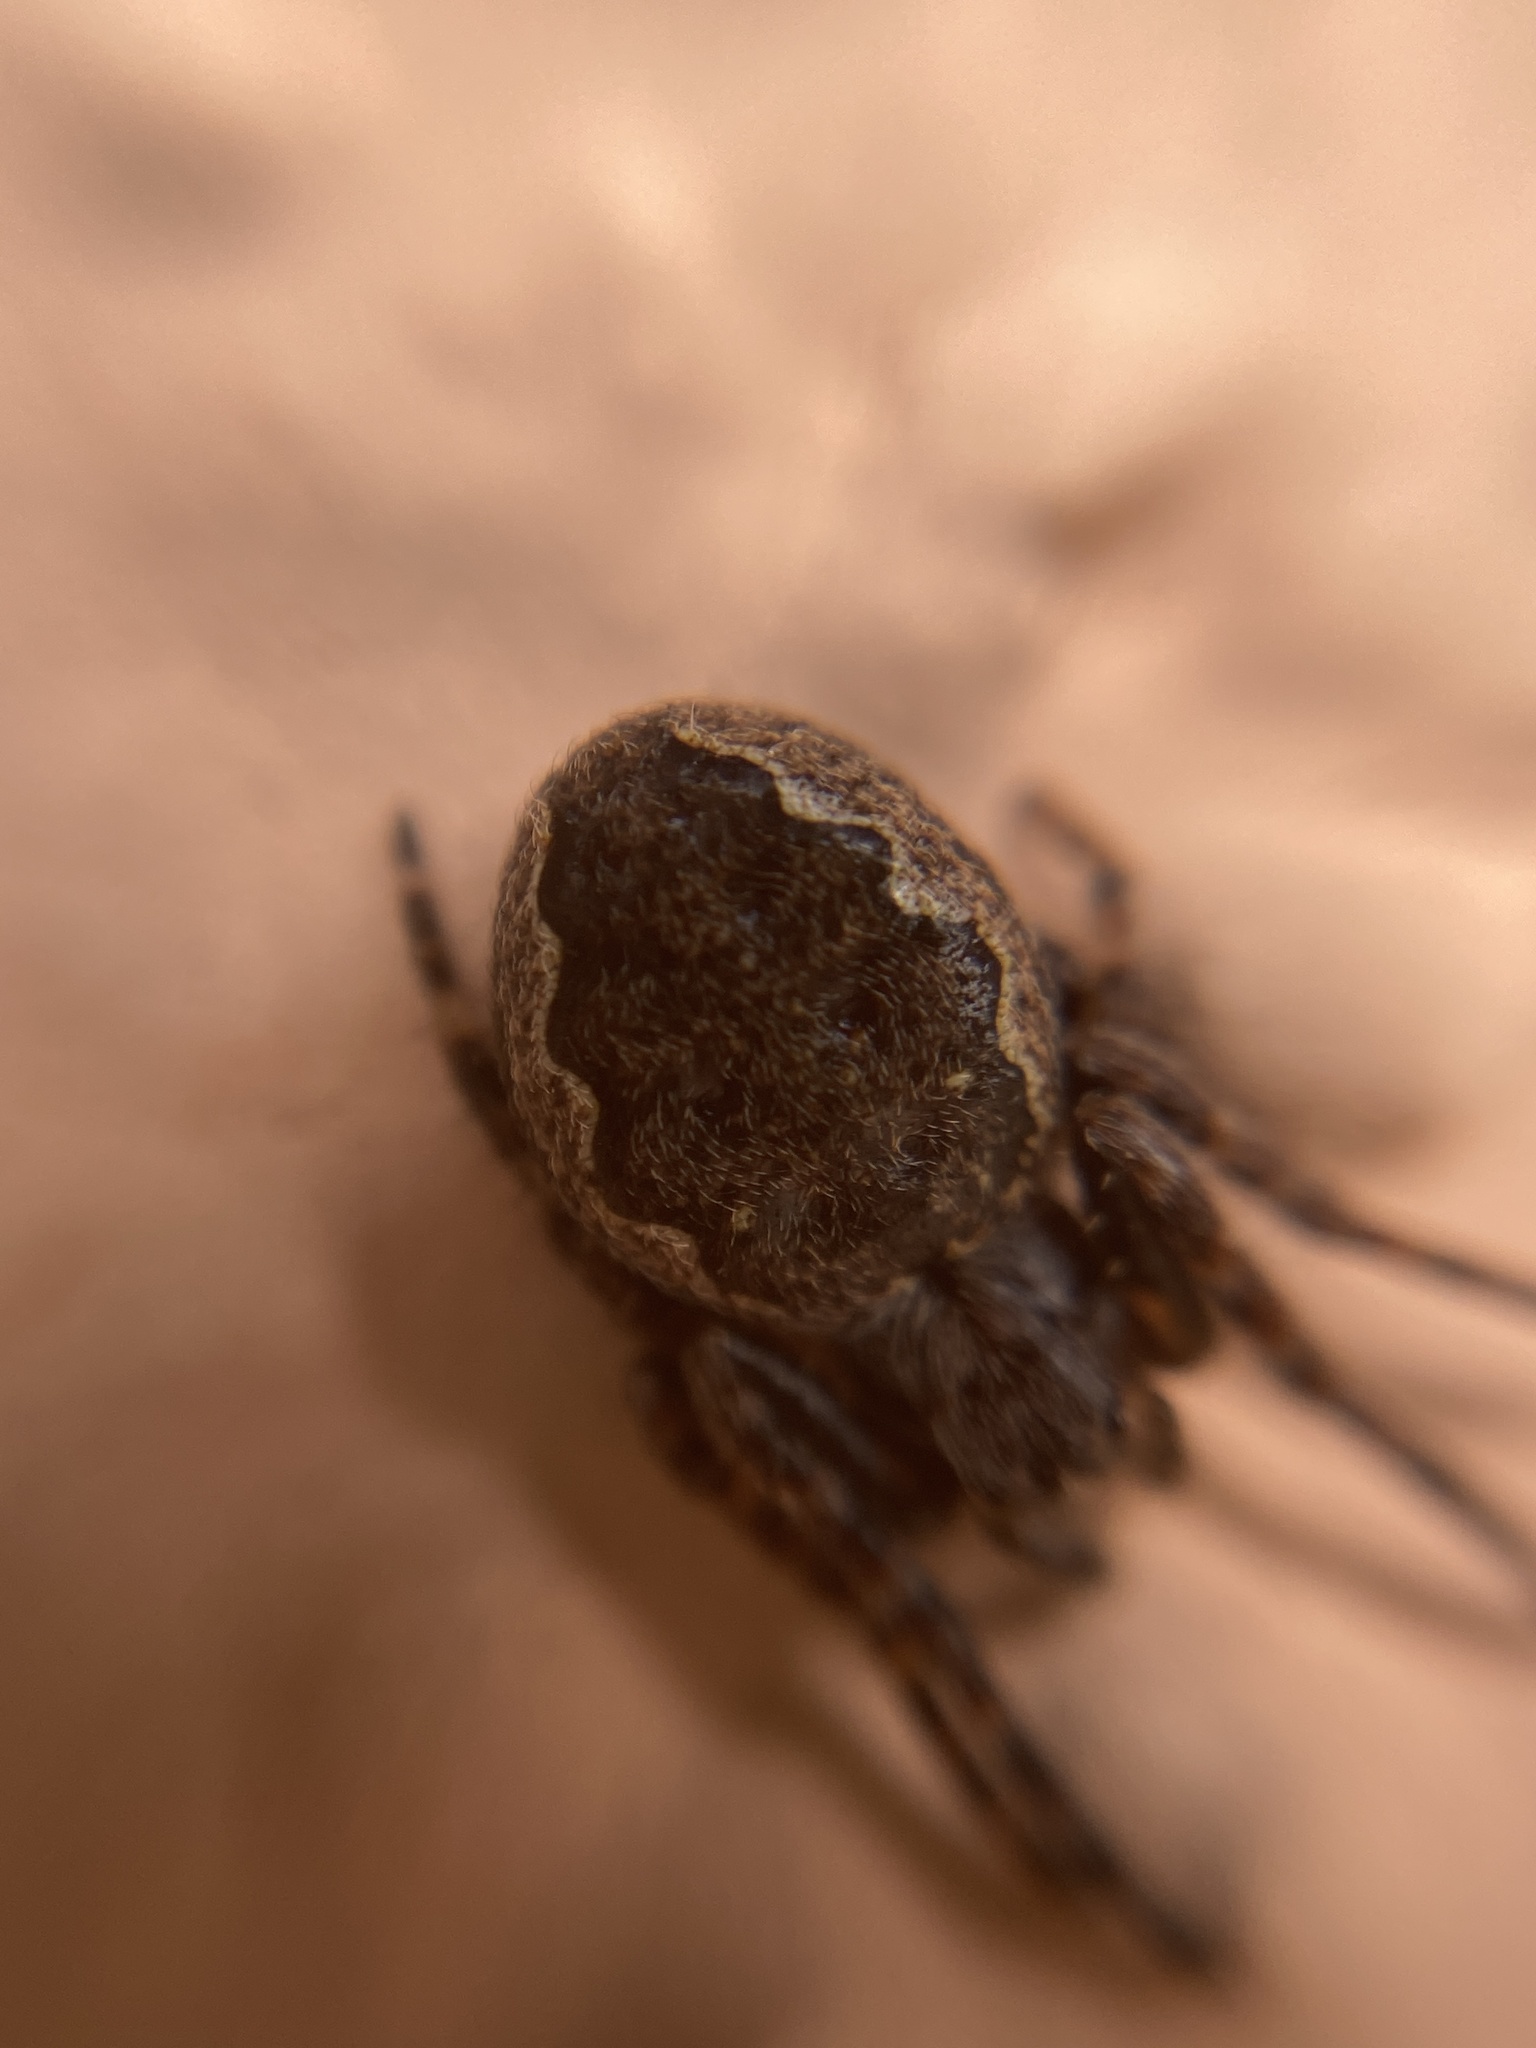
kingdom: Animalia
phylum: Arthropoda
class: Arachnida
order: Araneae
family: Araneidae
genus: Nuctenea
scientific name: Nuctenea umbratica
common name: Toad spider
